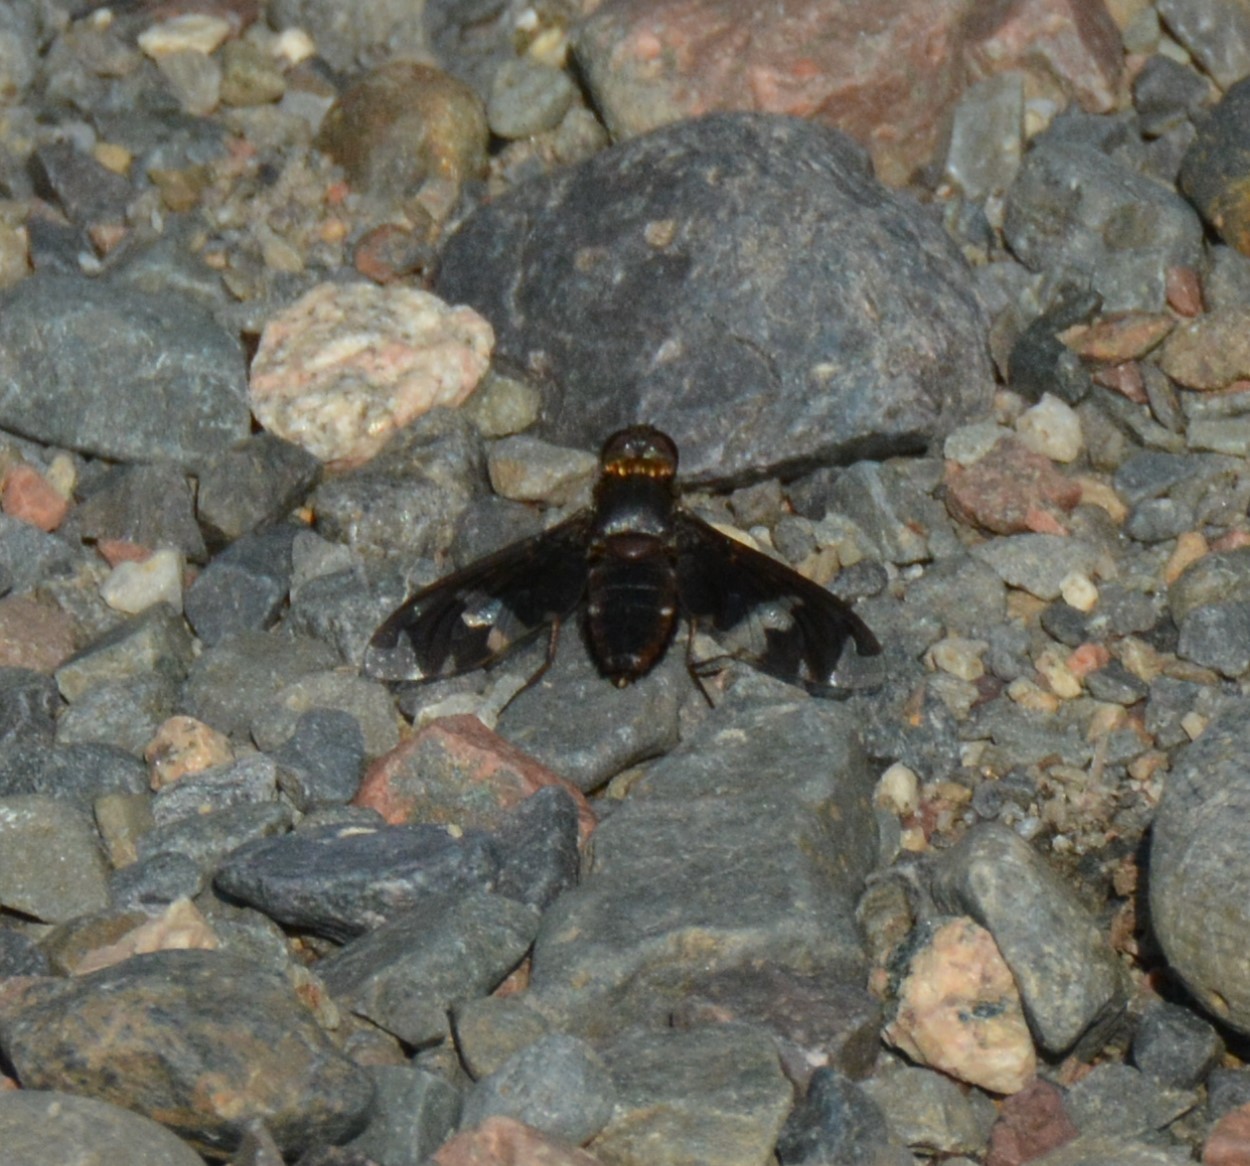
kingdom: Animalia
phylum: Arthropoda
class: Insecta
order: Diptera
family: Bombyliidae
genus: Exoprosopa
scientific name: Exoprosopa decora
